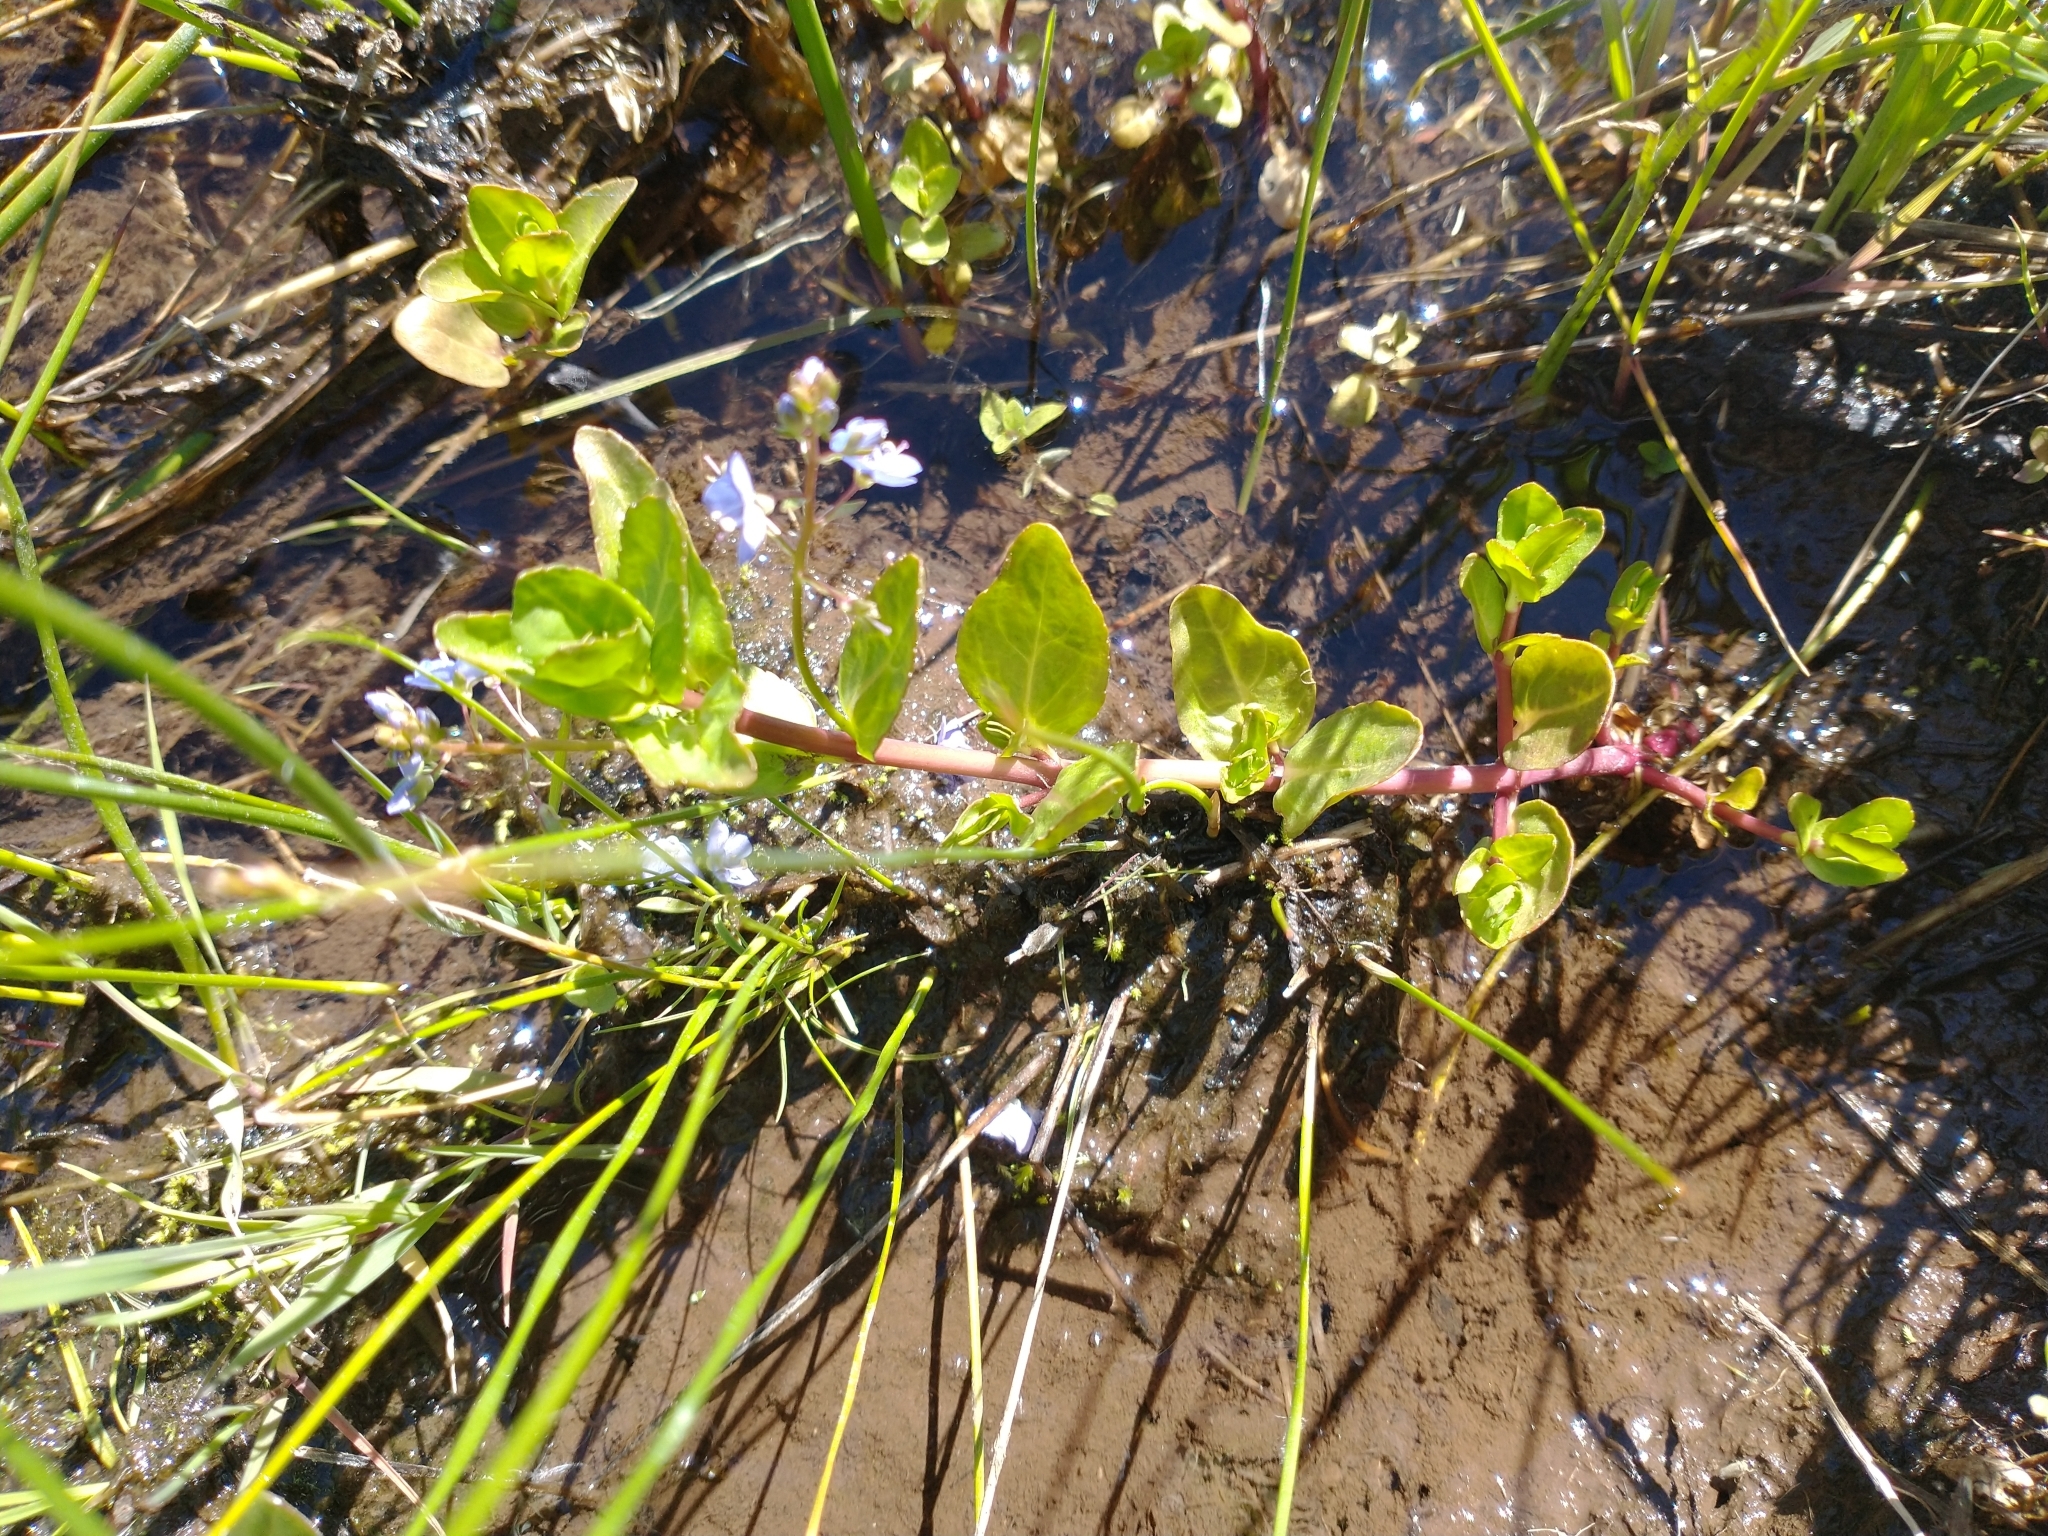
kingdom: Plantae
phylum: Tracheophyta
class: Magnoliopsida
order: Lamiales
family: Plantaginaceae
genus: Veronica
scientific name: Veronica americana
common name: American brooklime
